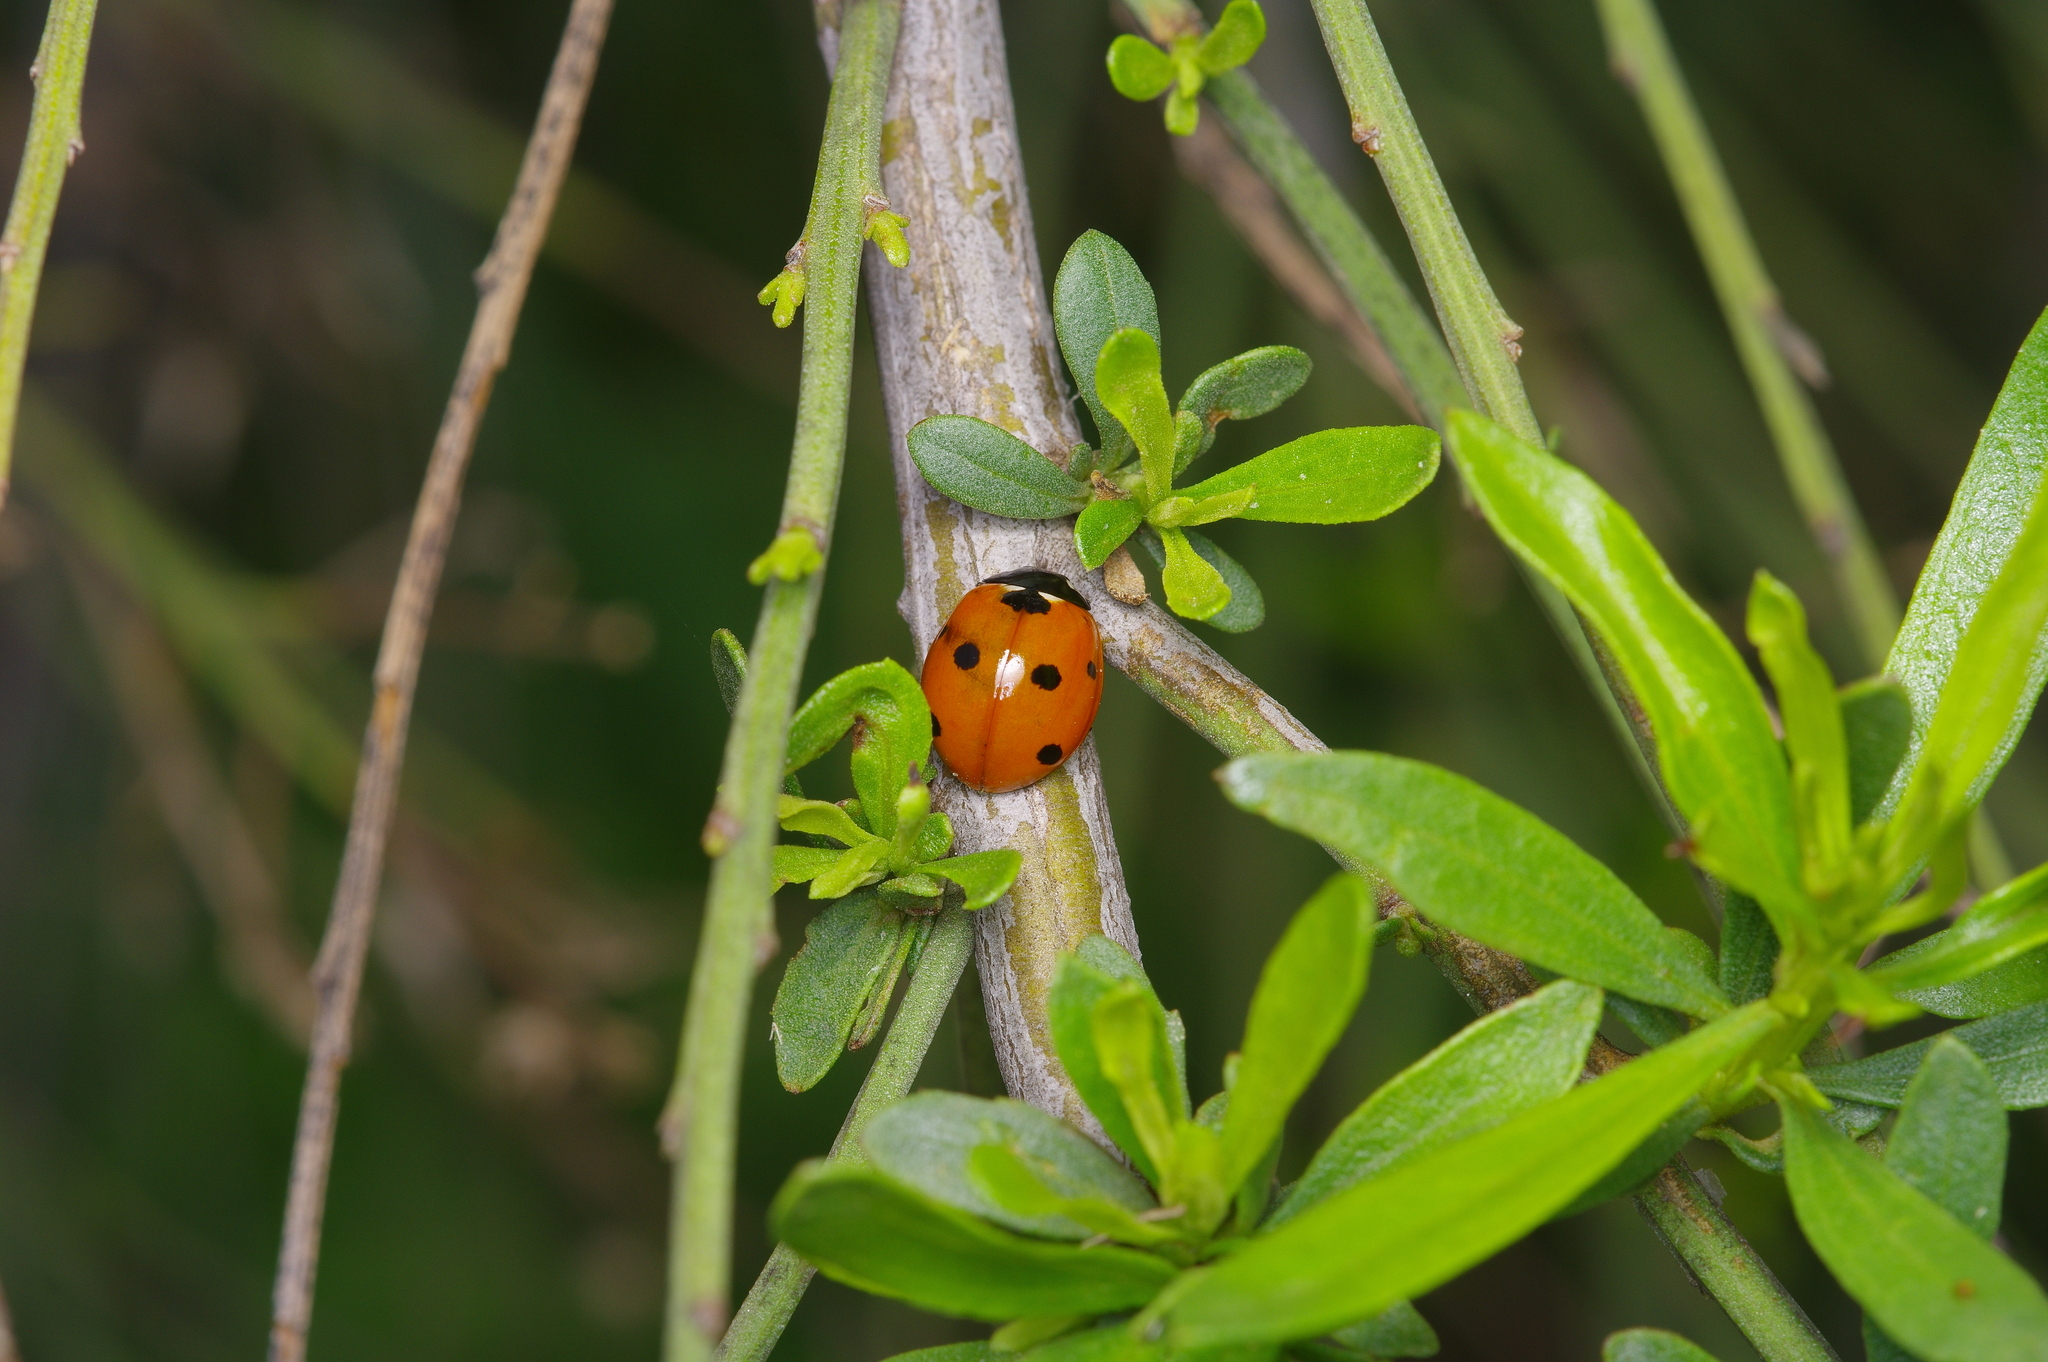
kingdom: Animalia
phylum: Arthropoda
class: Insecta
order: Coleoptera
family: Coccinellidae
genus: Coccinella
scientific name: Coccinella septempunctata
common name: Sevenspotted lady beetle
